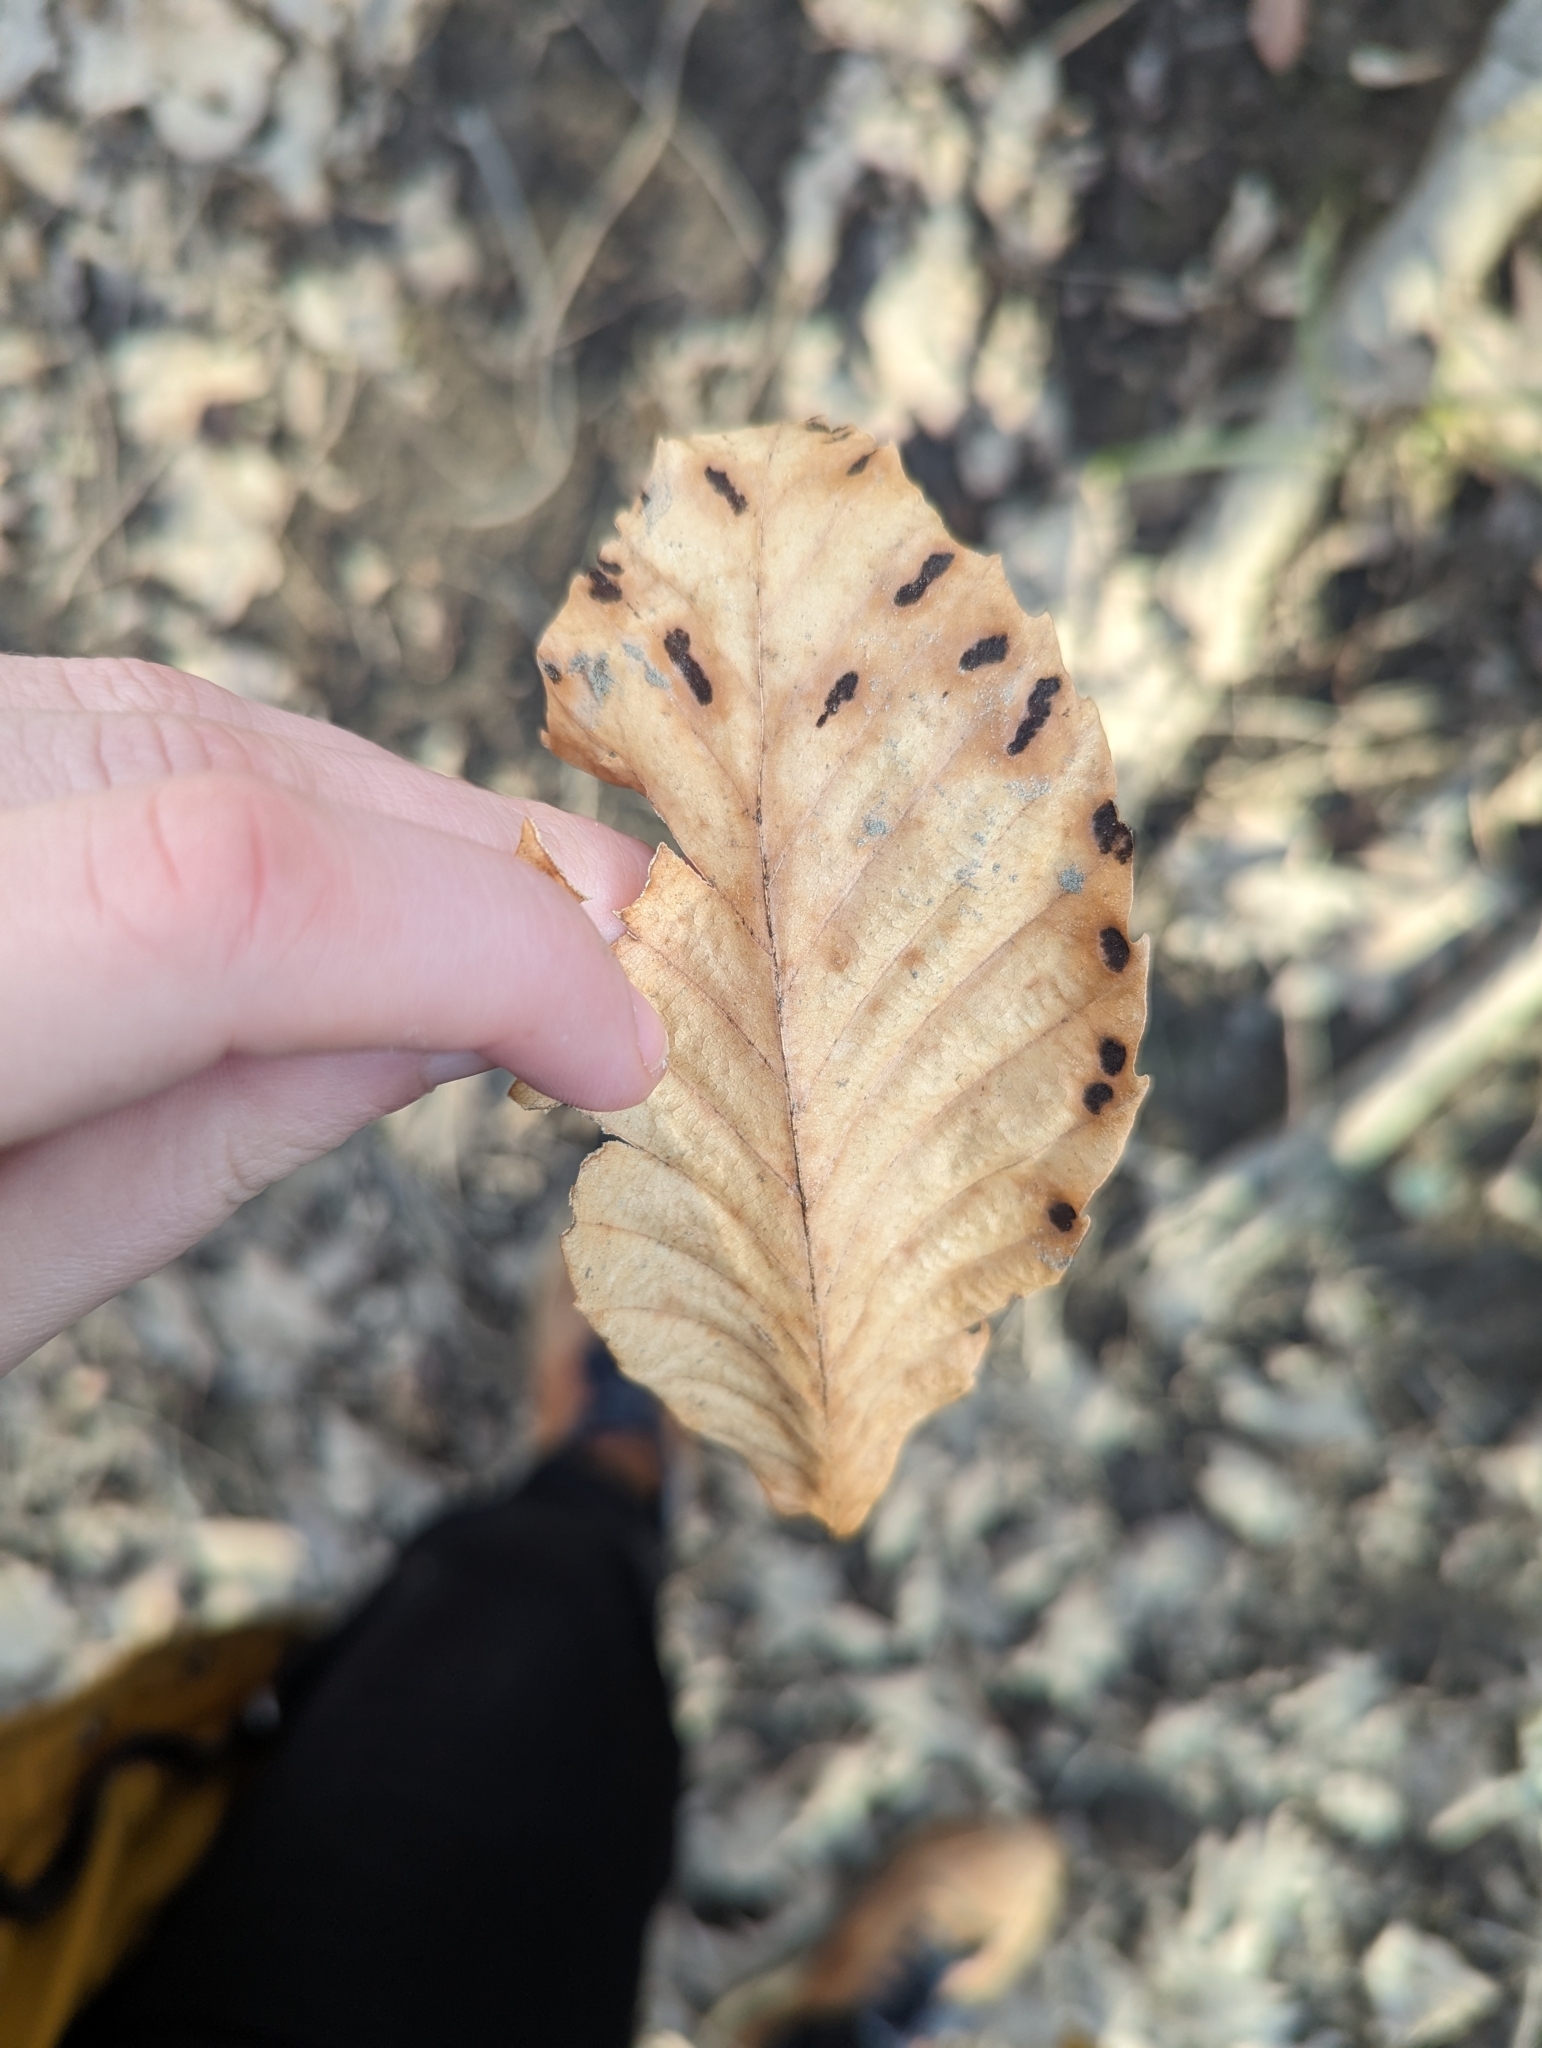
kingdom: Plantae
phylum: Tracheophyta
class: Magnoliopsida
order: Fagales
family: Fagaceae
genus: Fagus
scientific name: Fagus grandifolia
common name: American beech
